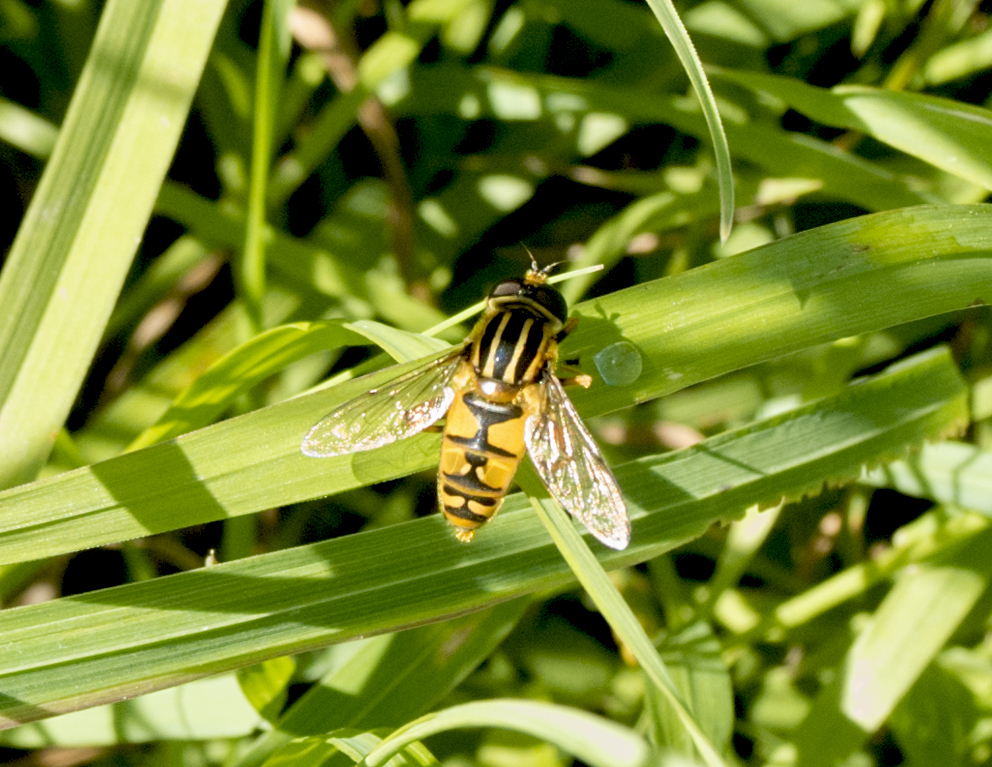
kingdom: Animalia
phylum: Arthropoda
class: Insecta
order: Diptera
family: Syrphidae
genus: Helophilus
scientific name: Helophilus pendulus
